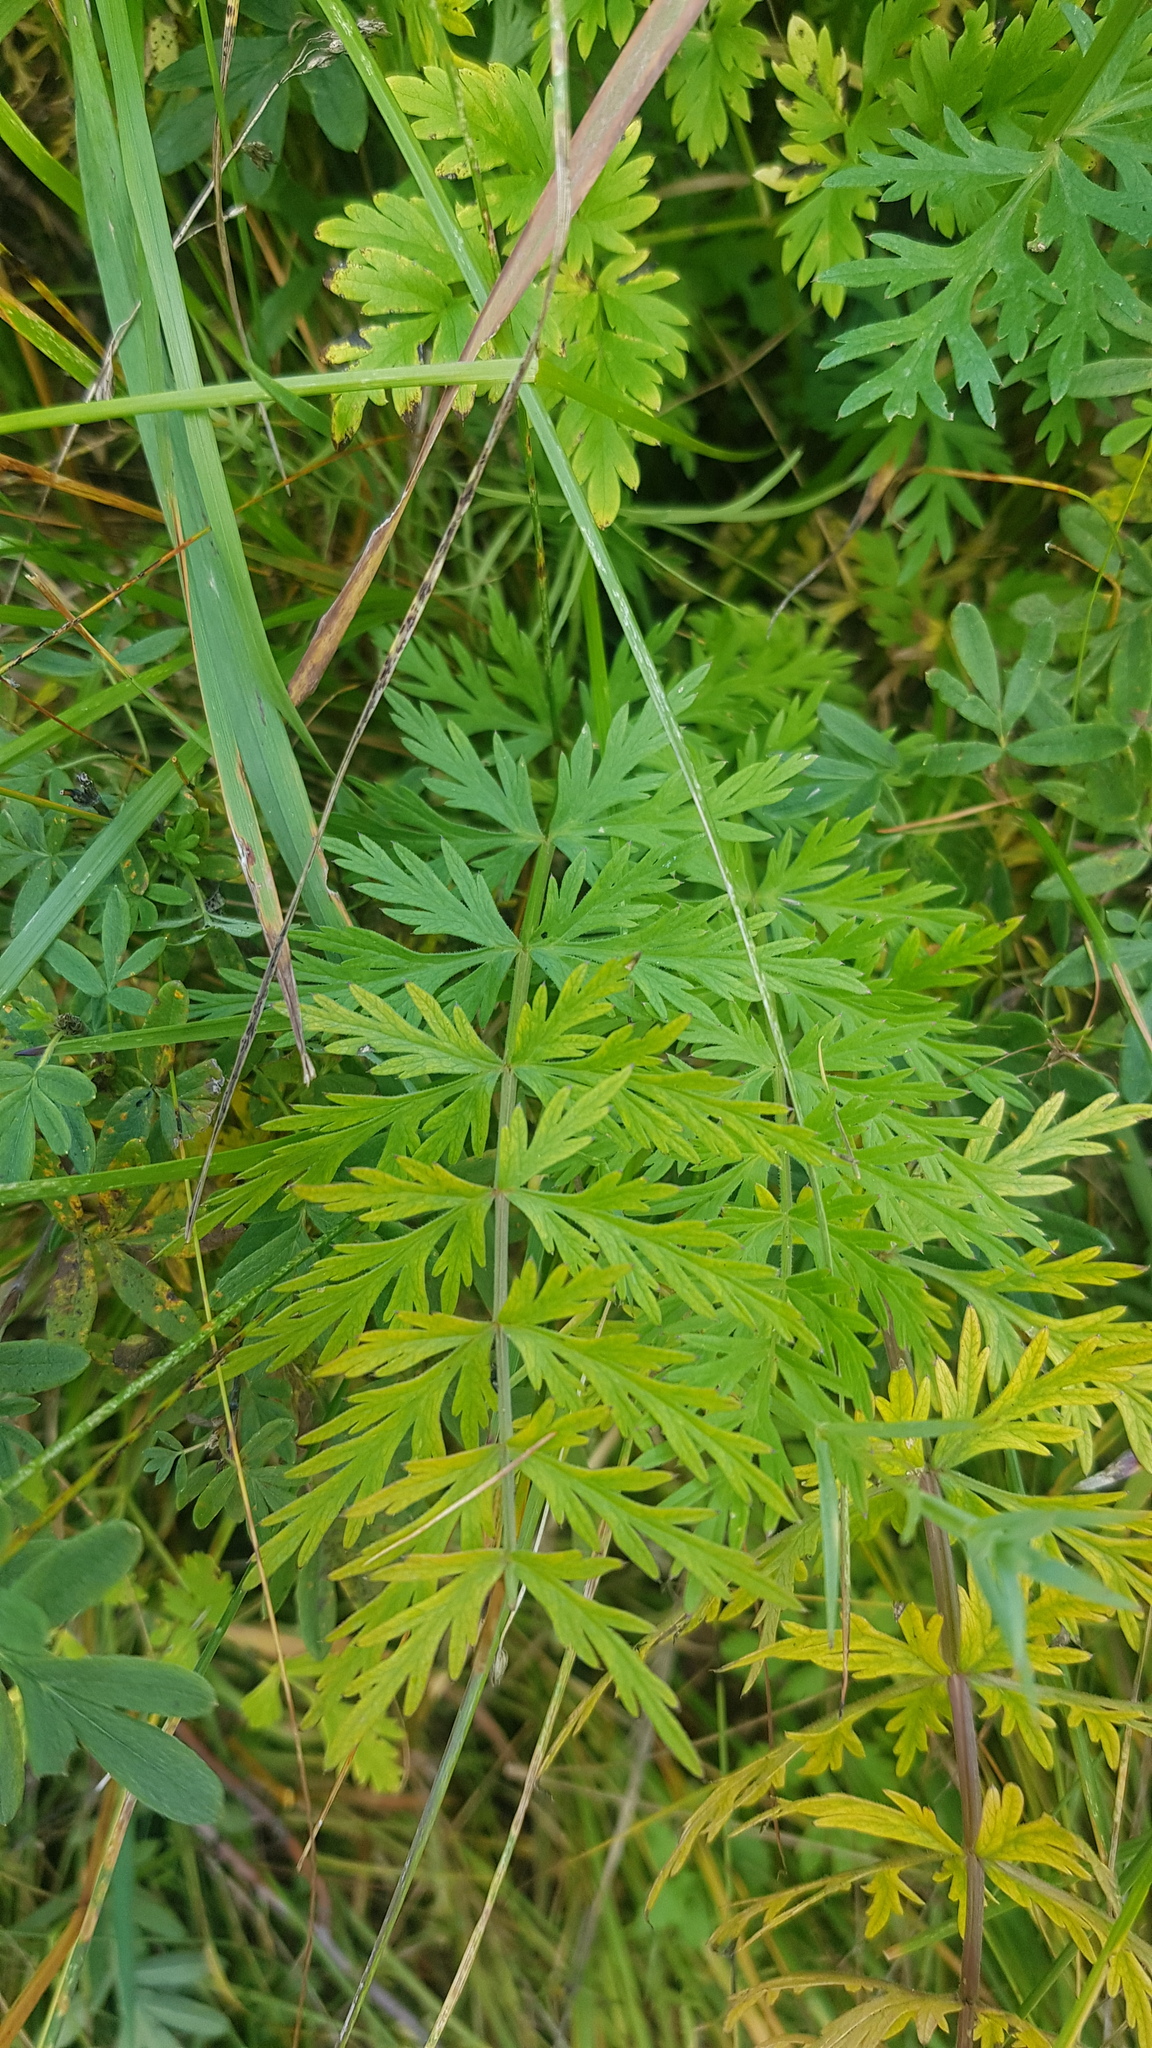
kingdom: Plantae
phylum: Tracheophyta
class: Magnoliopsida
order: Apiales
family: Apiaceae
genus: Seseli
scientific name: Seseli condensatum
